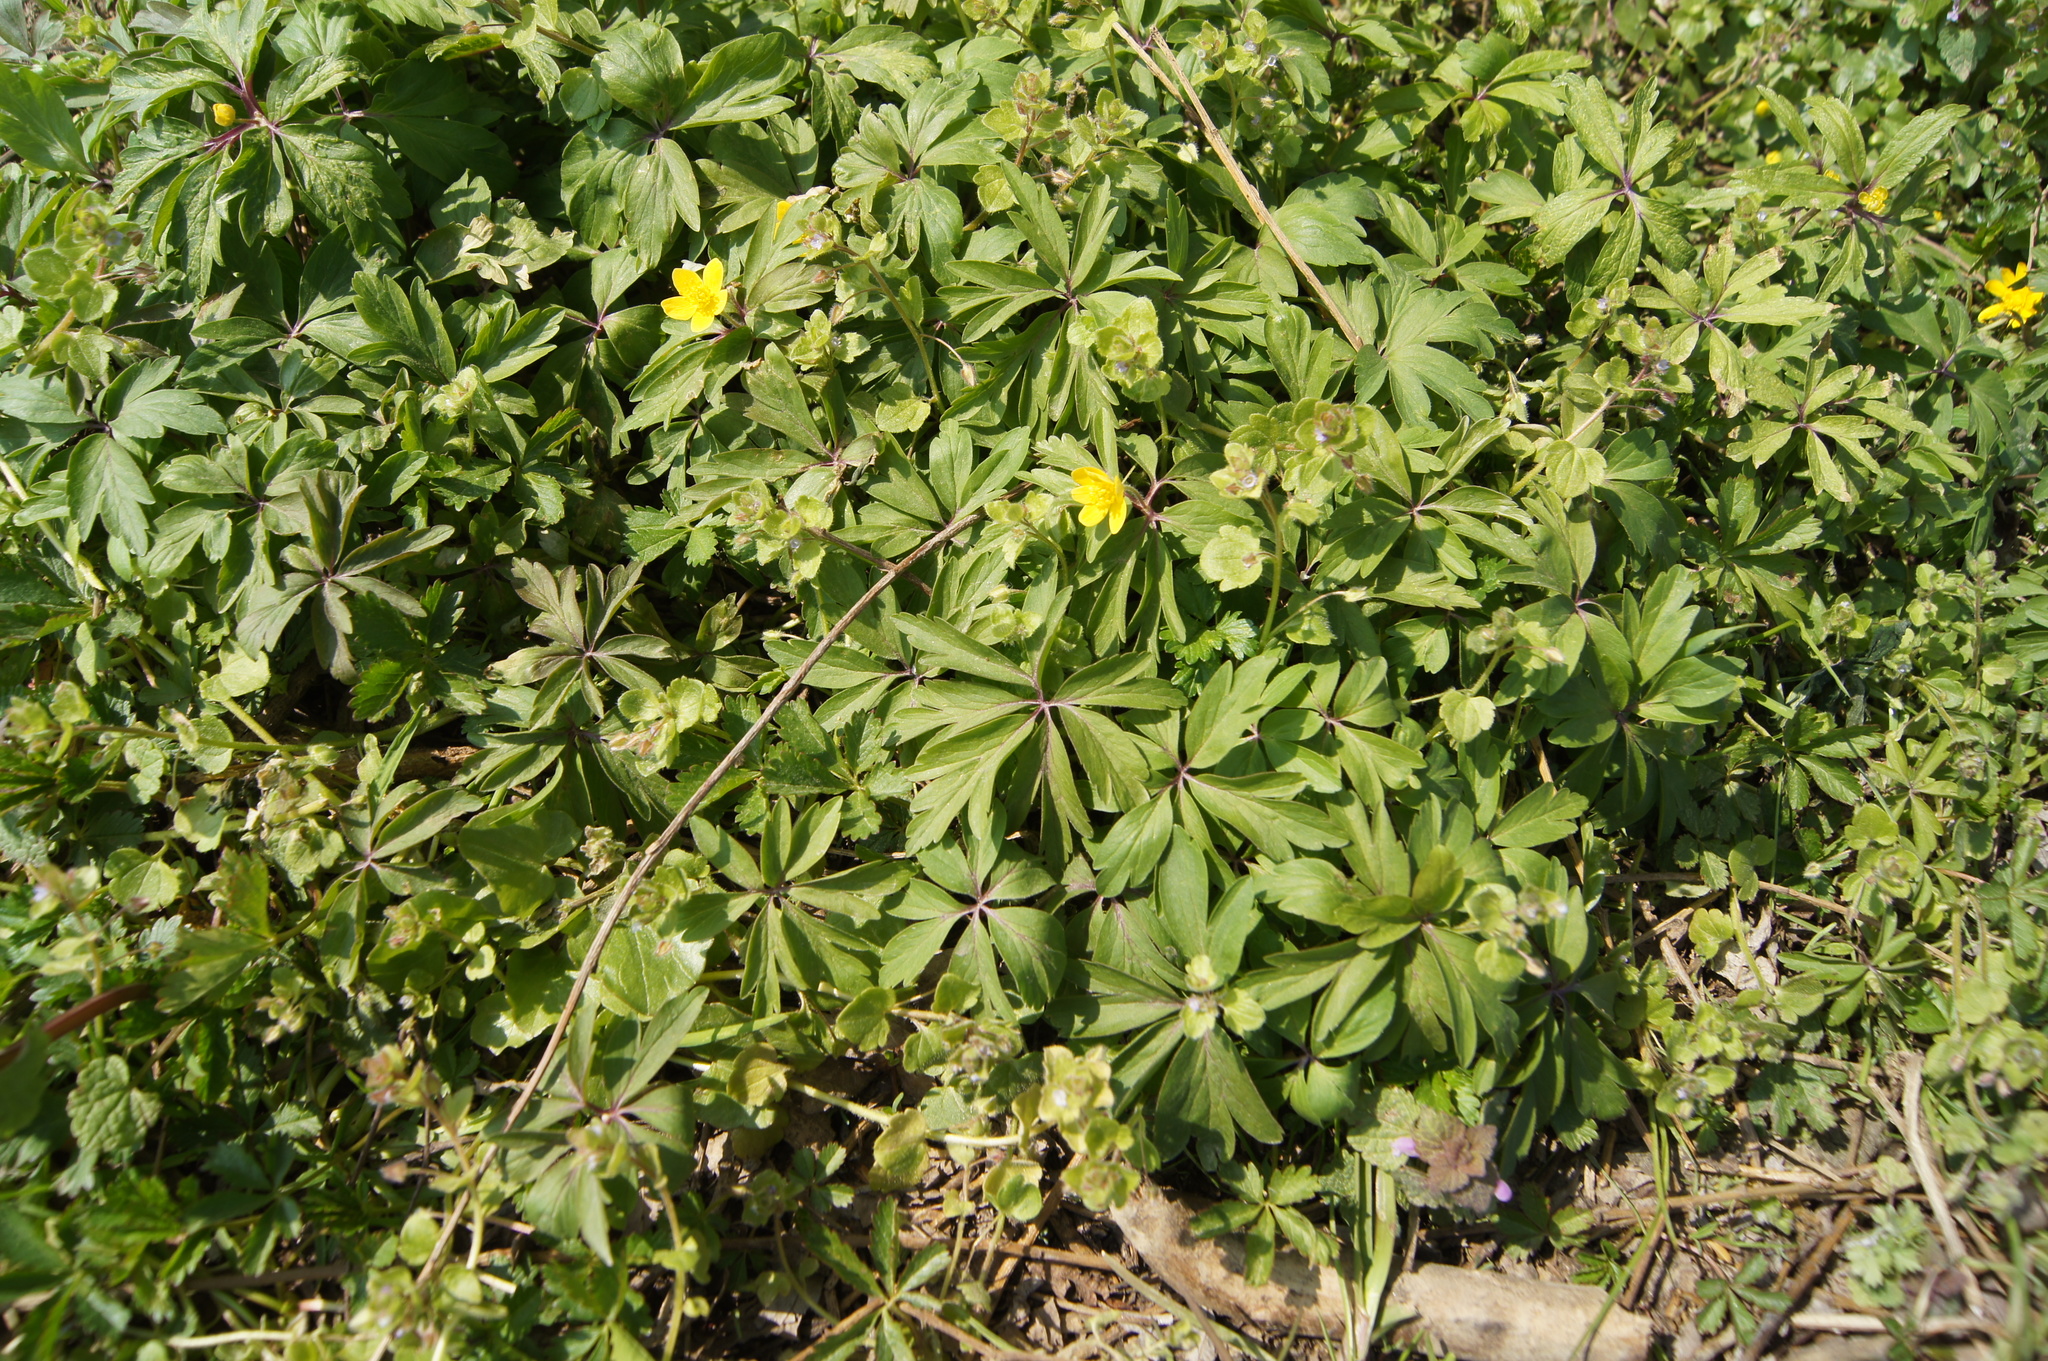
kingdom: Plantae
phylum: Tracheophyta
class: Magnoliopsida
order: Ranunculales
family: Ranunculaceae
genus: Anemone
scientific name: Anemone ranunculoides
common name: Yellow anemone
